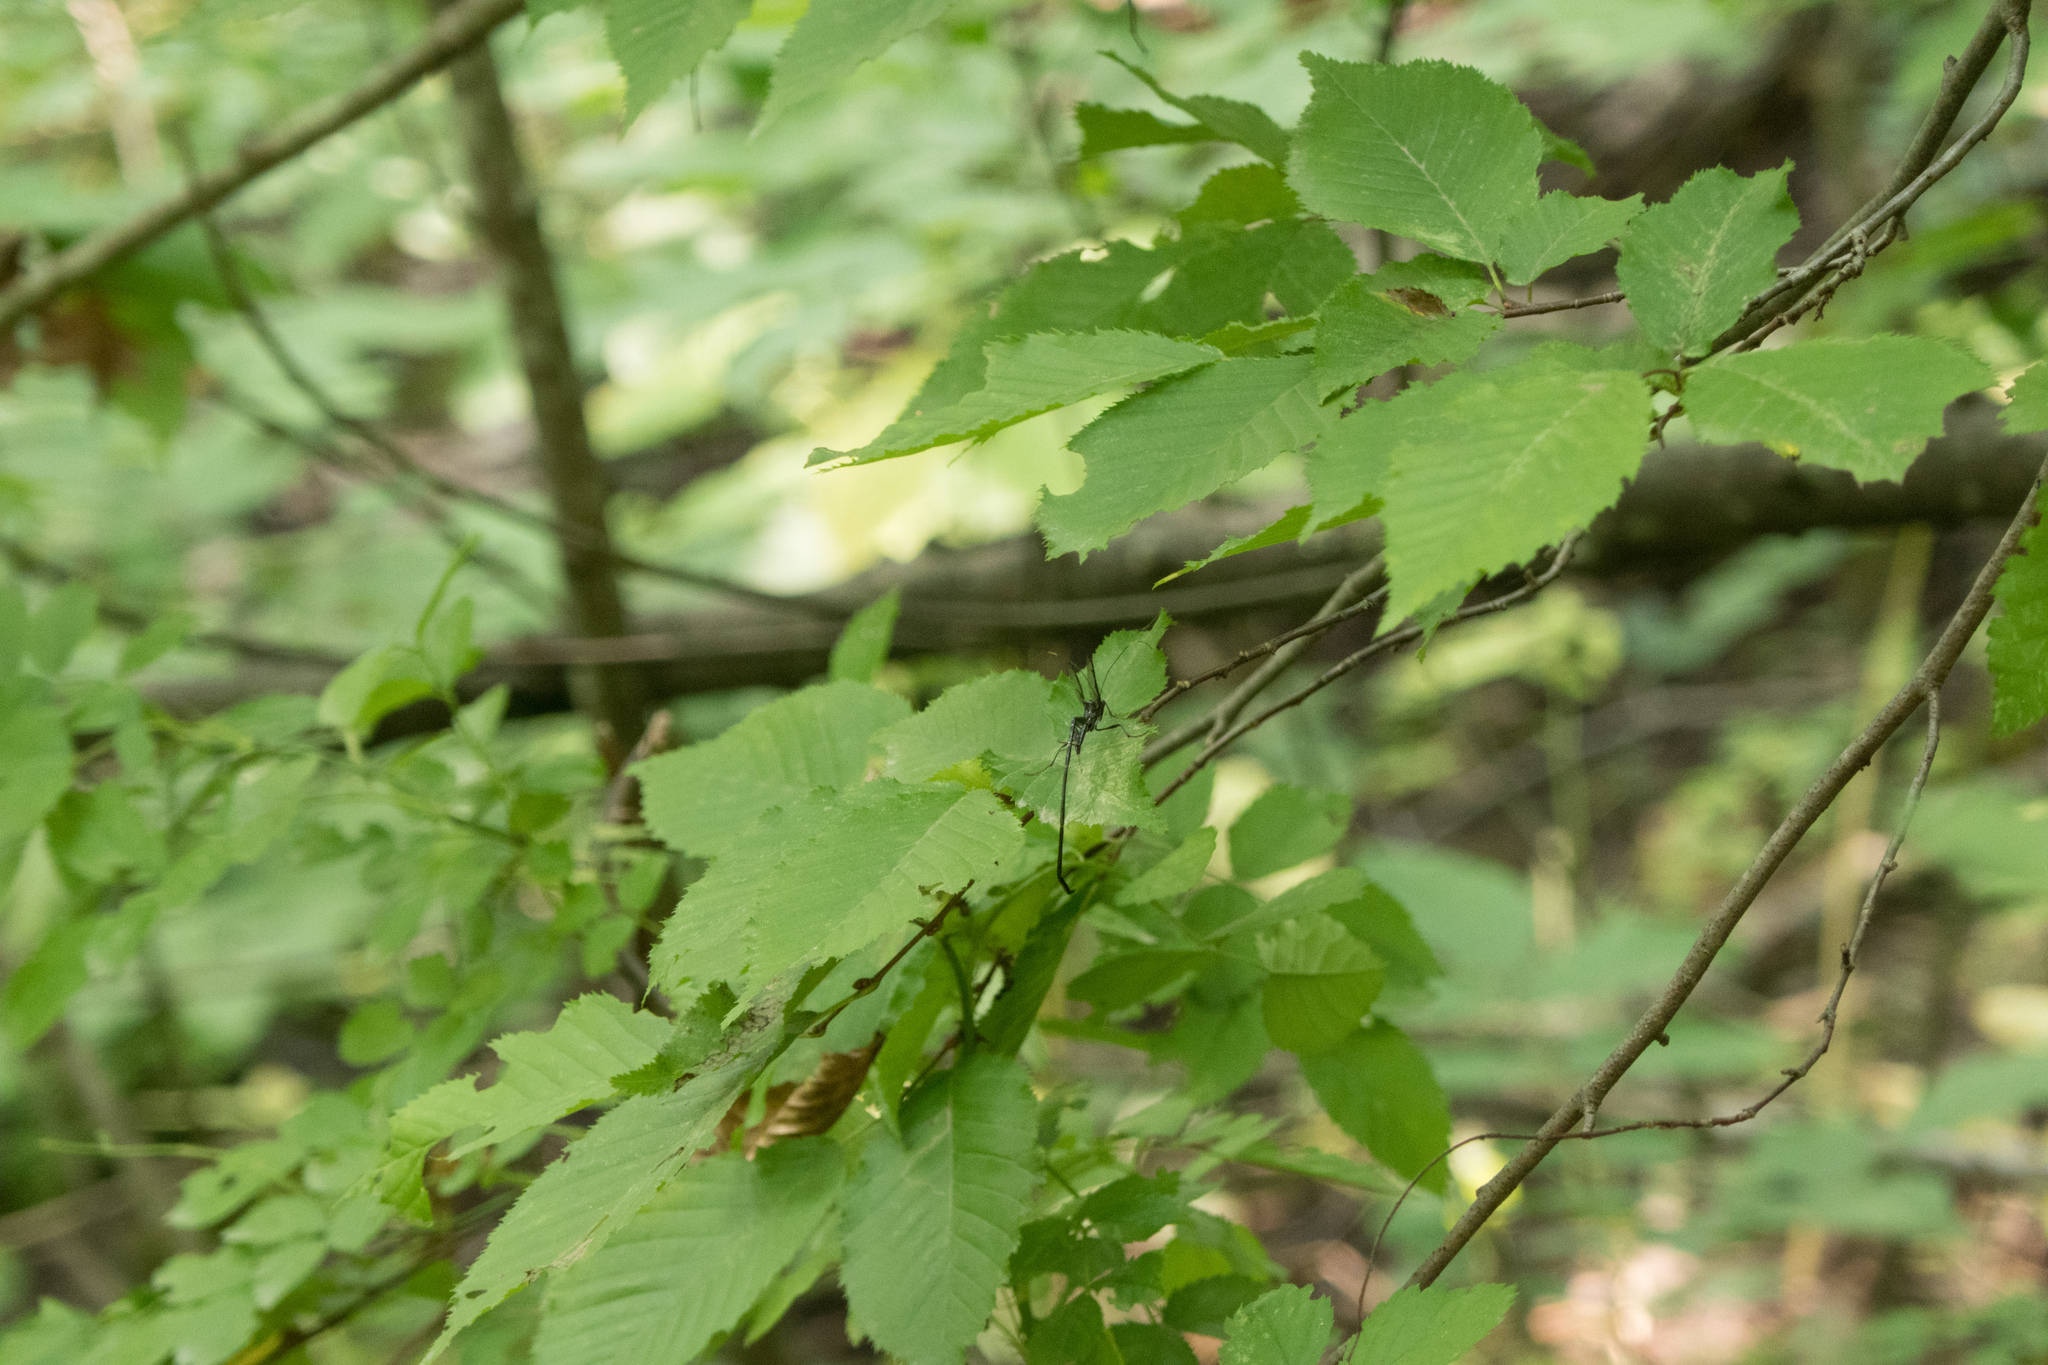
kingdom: Animalia
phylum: Arthropoda
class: Insecta
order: Hymenoptera
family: Pelecinidae
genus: Pelecinus
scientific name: Pelecinus polyturator
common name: American pelecinid wasp
